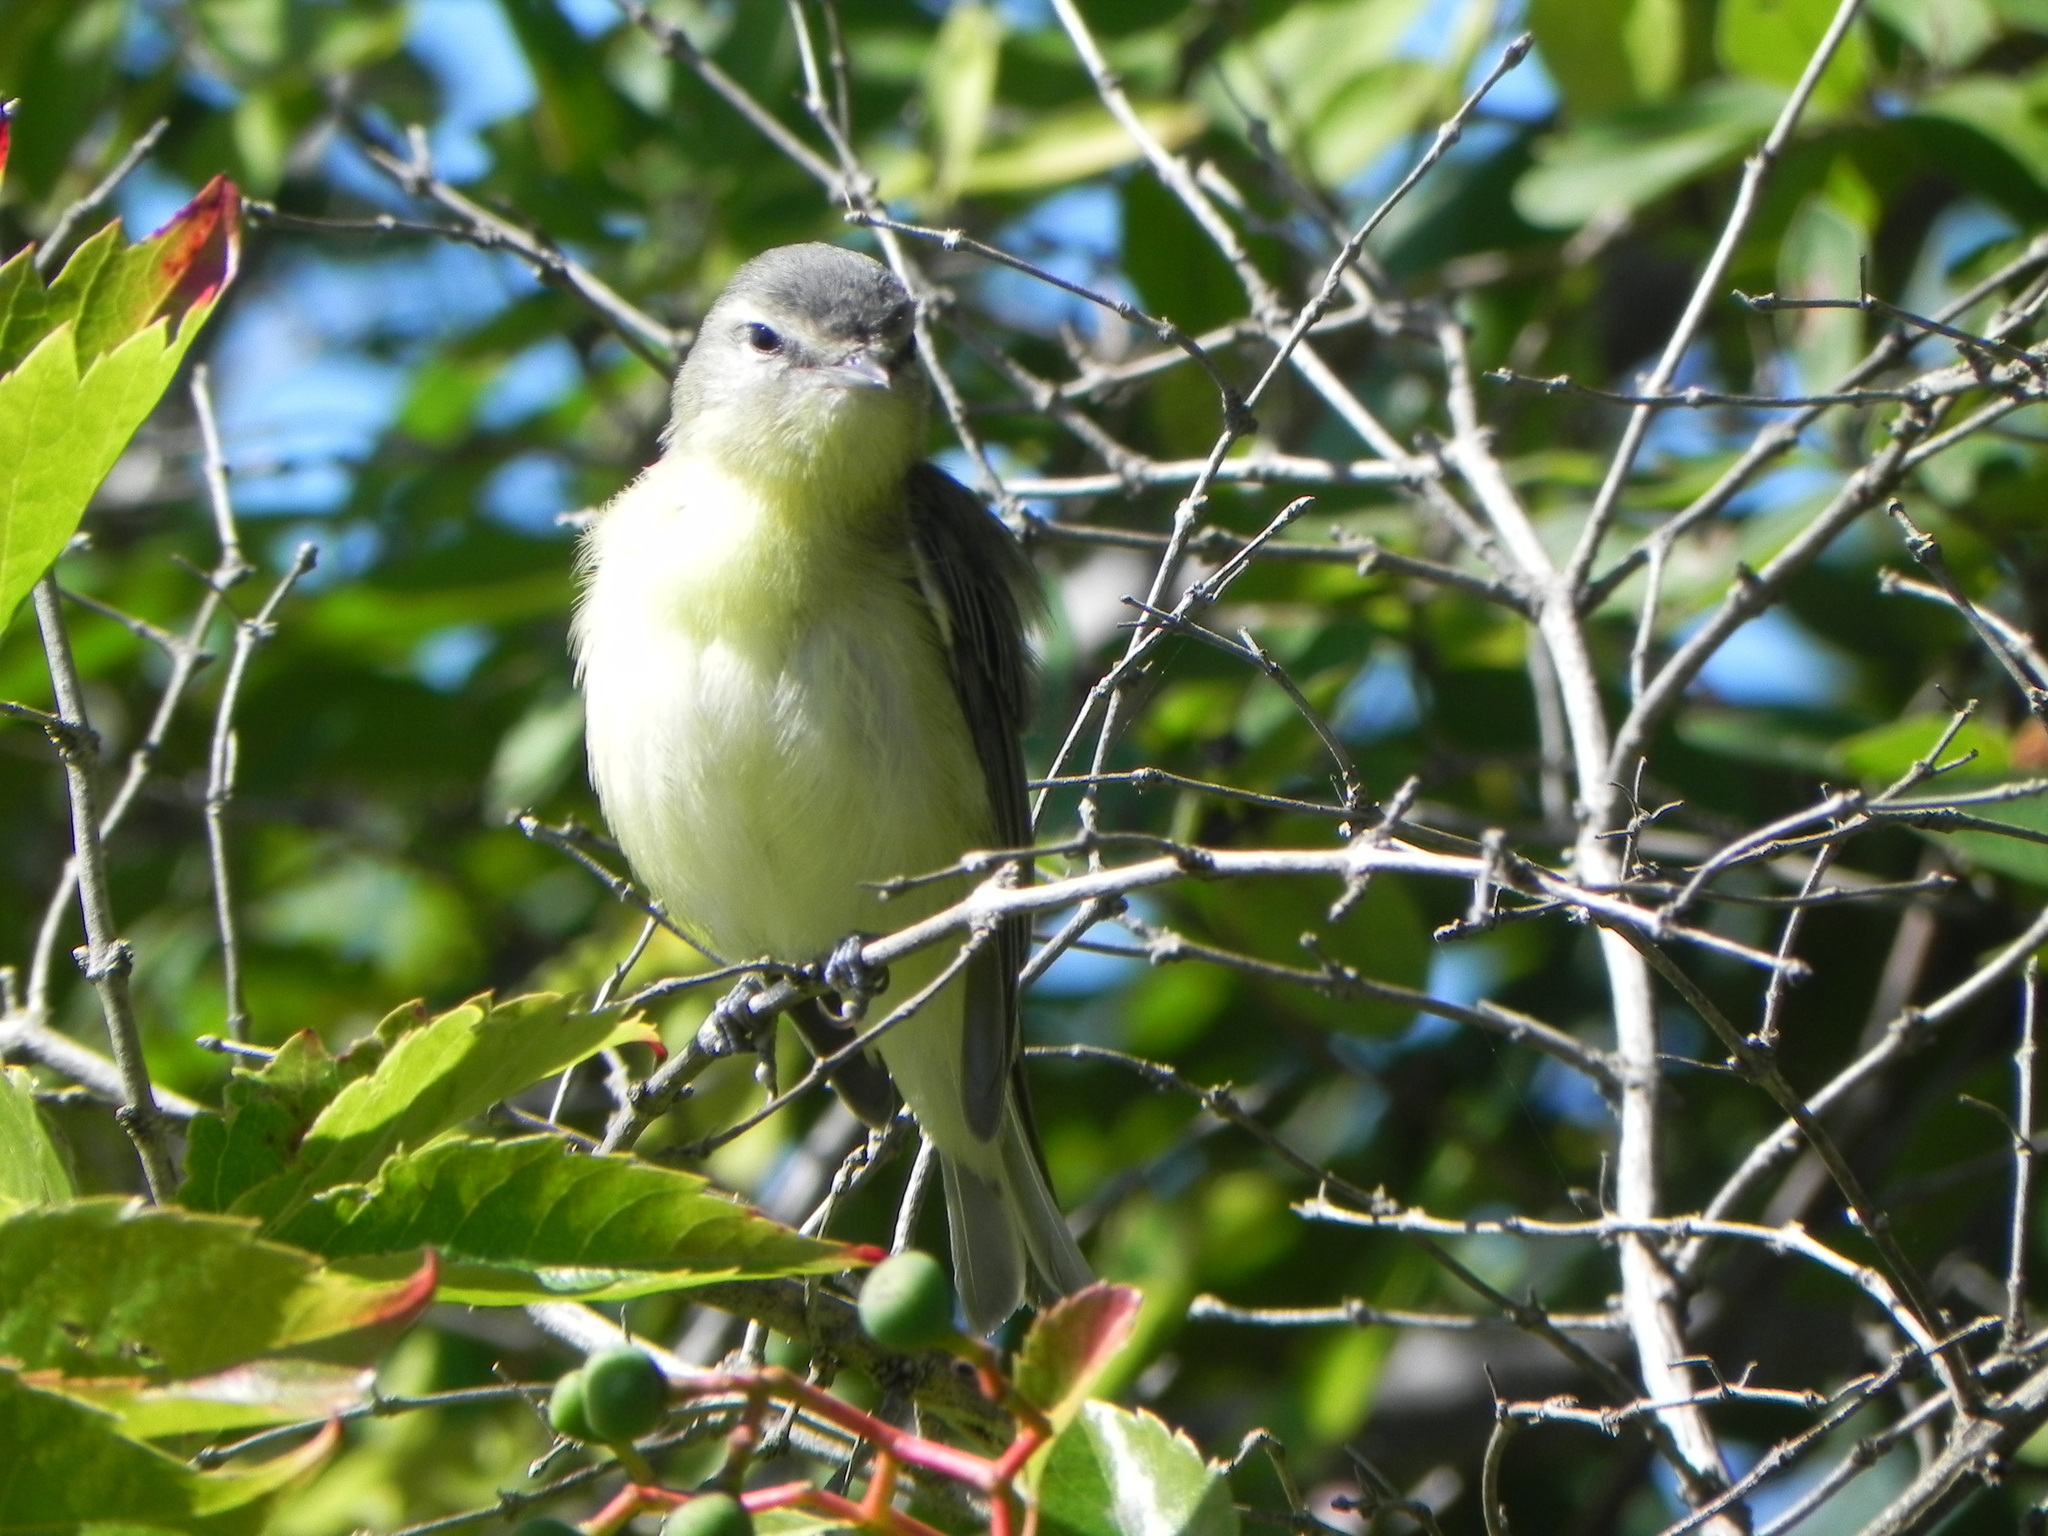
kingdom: Animalia
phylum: Chordata
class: Aves
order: Passeriformes
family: Vireonidae
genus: Vireo
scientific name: Vireo philadelphicus
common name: Philadelphia vireo
